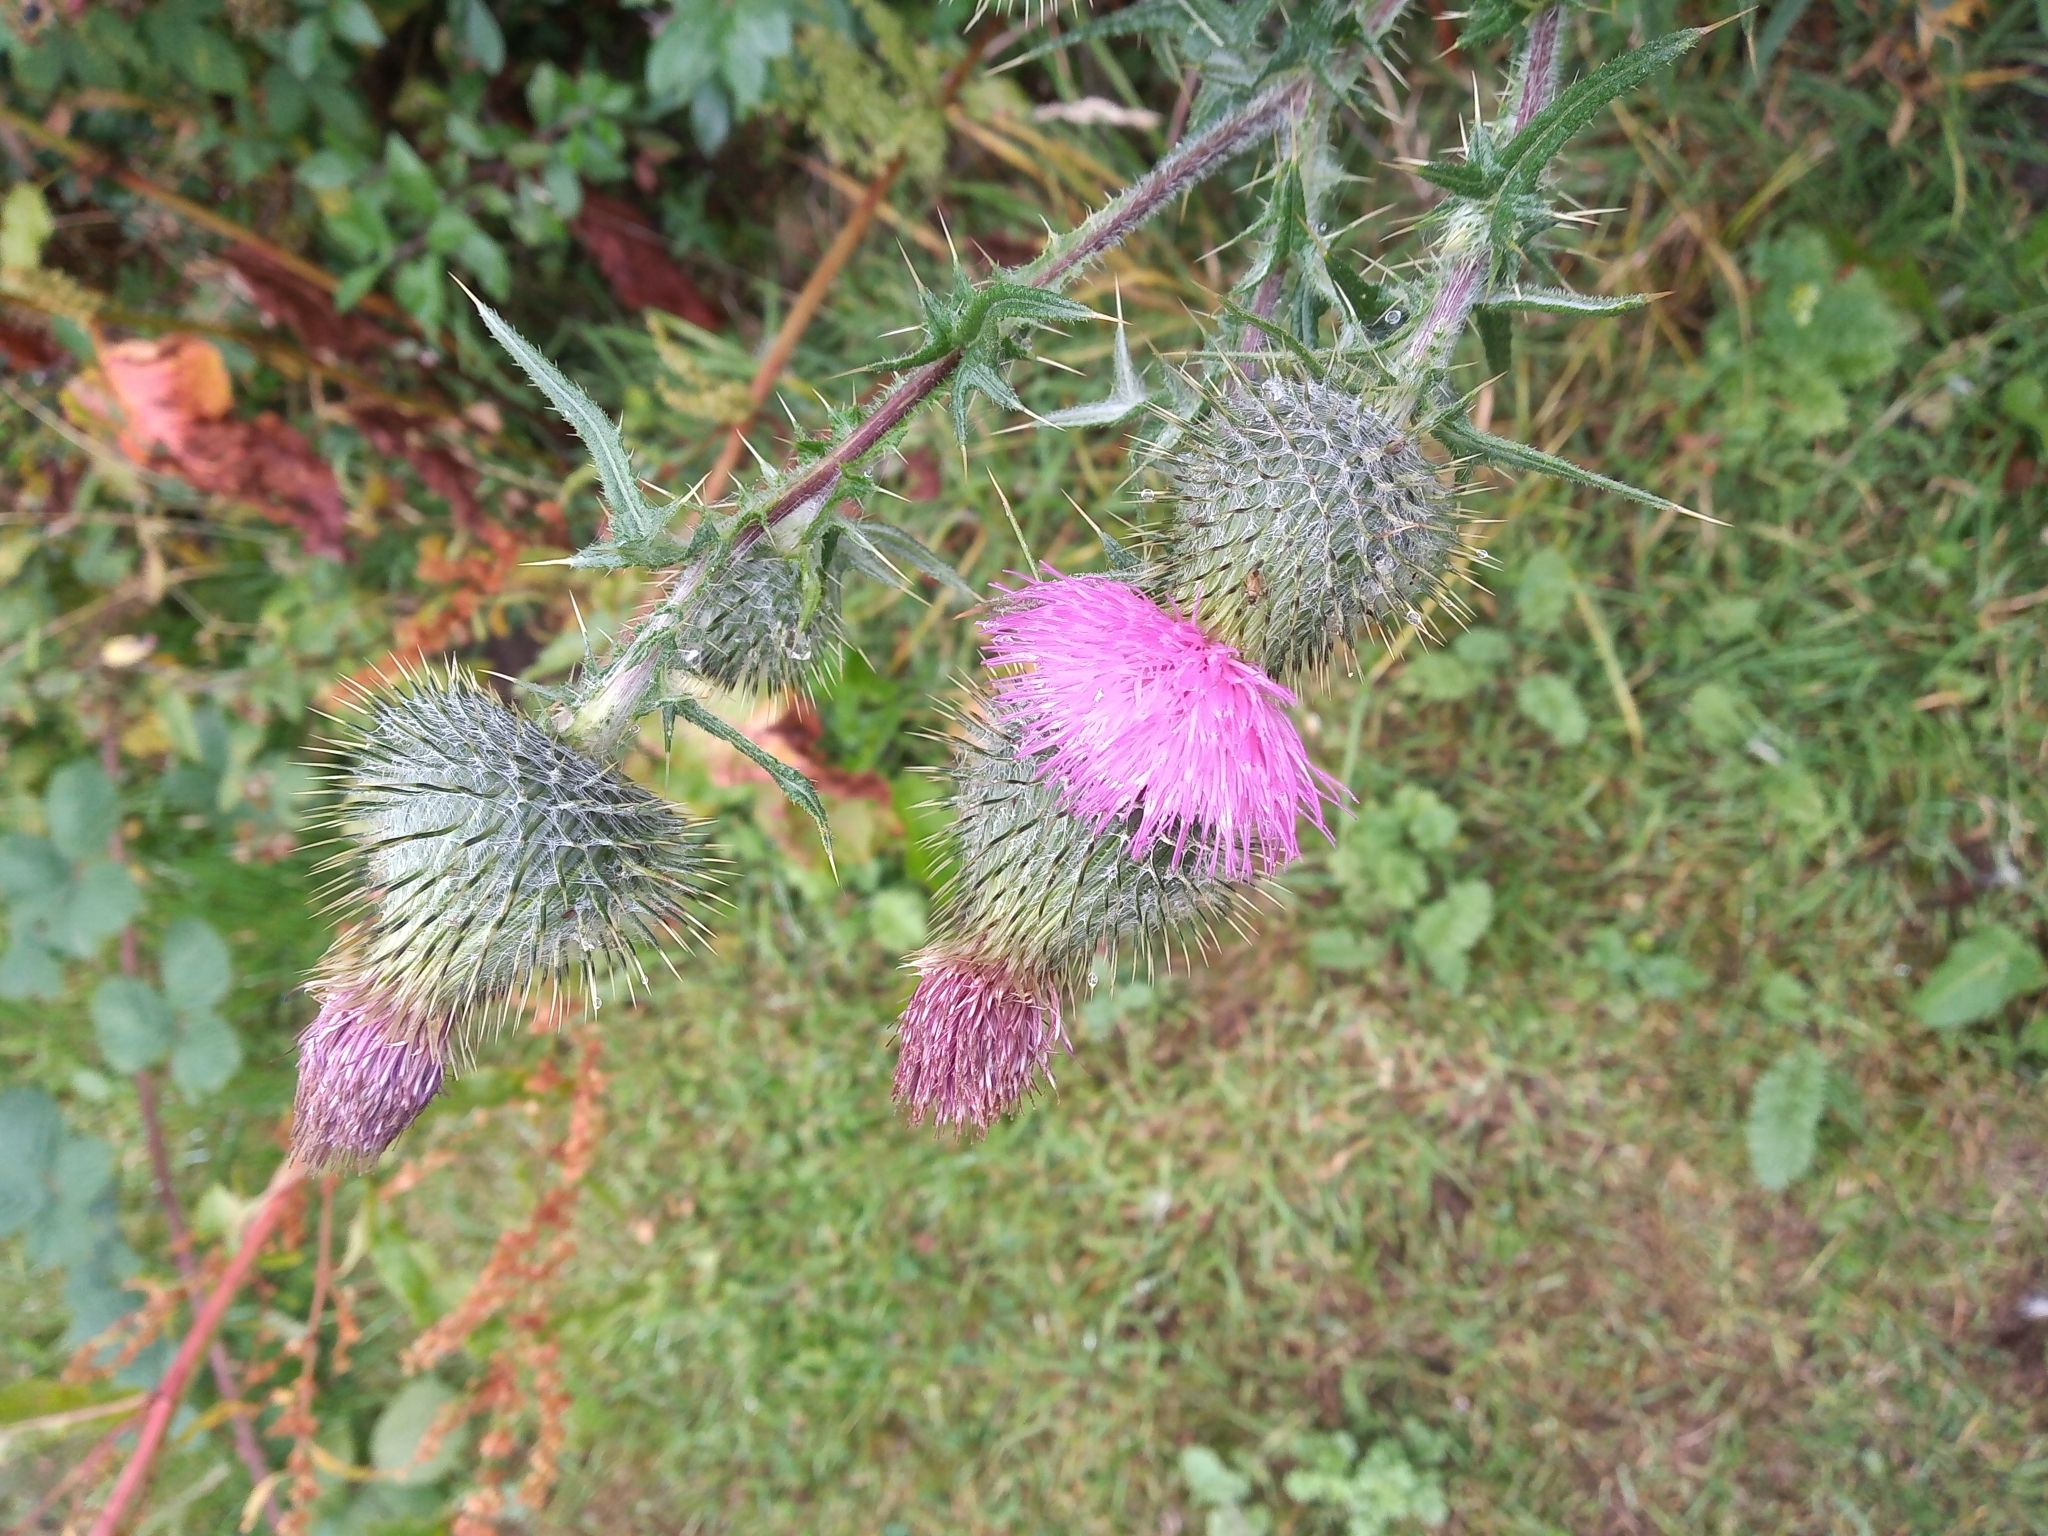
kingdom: Plantae
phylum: Tracheophyta
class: Magnoliopsida
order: Asterales
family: Asteraceae
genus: Cirsium
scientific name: Cirsium vulgare
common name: Bull thistle
